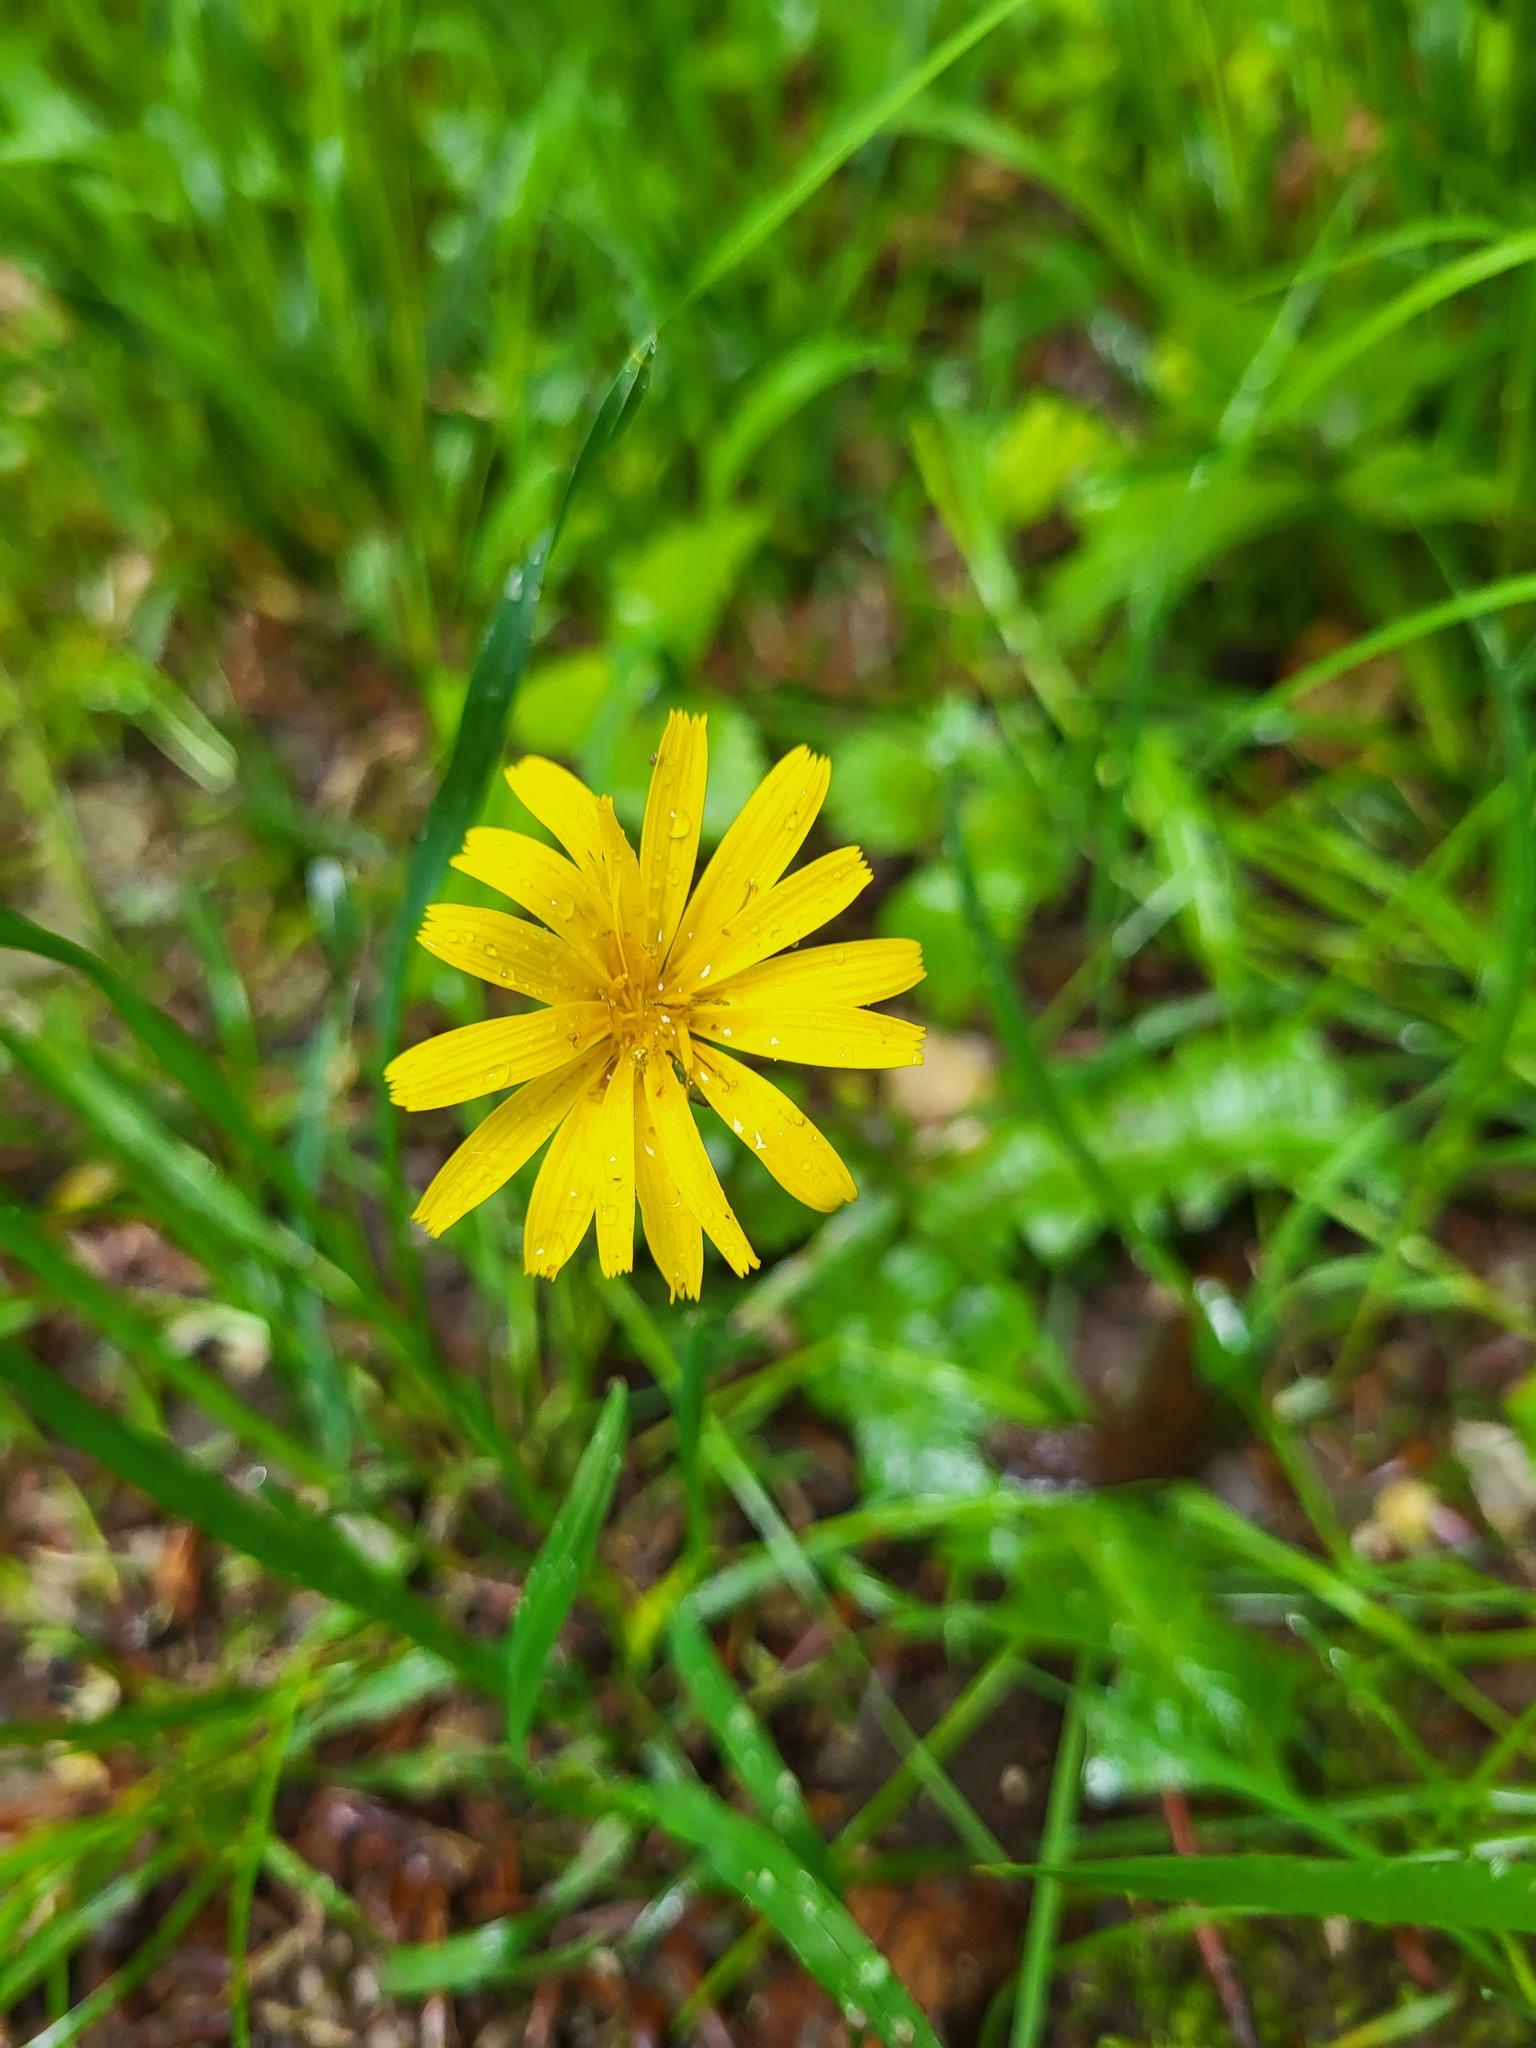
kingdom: Plantae
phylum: Tracheophyta
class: Magnoliopsida
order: Asterales
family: Asteraceae
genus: Aposeris
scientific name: Aposeris foetida
